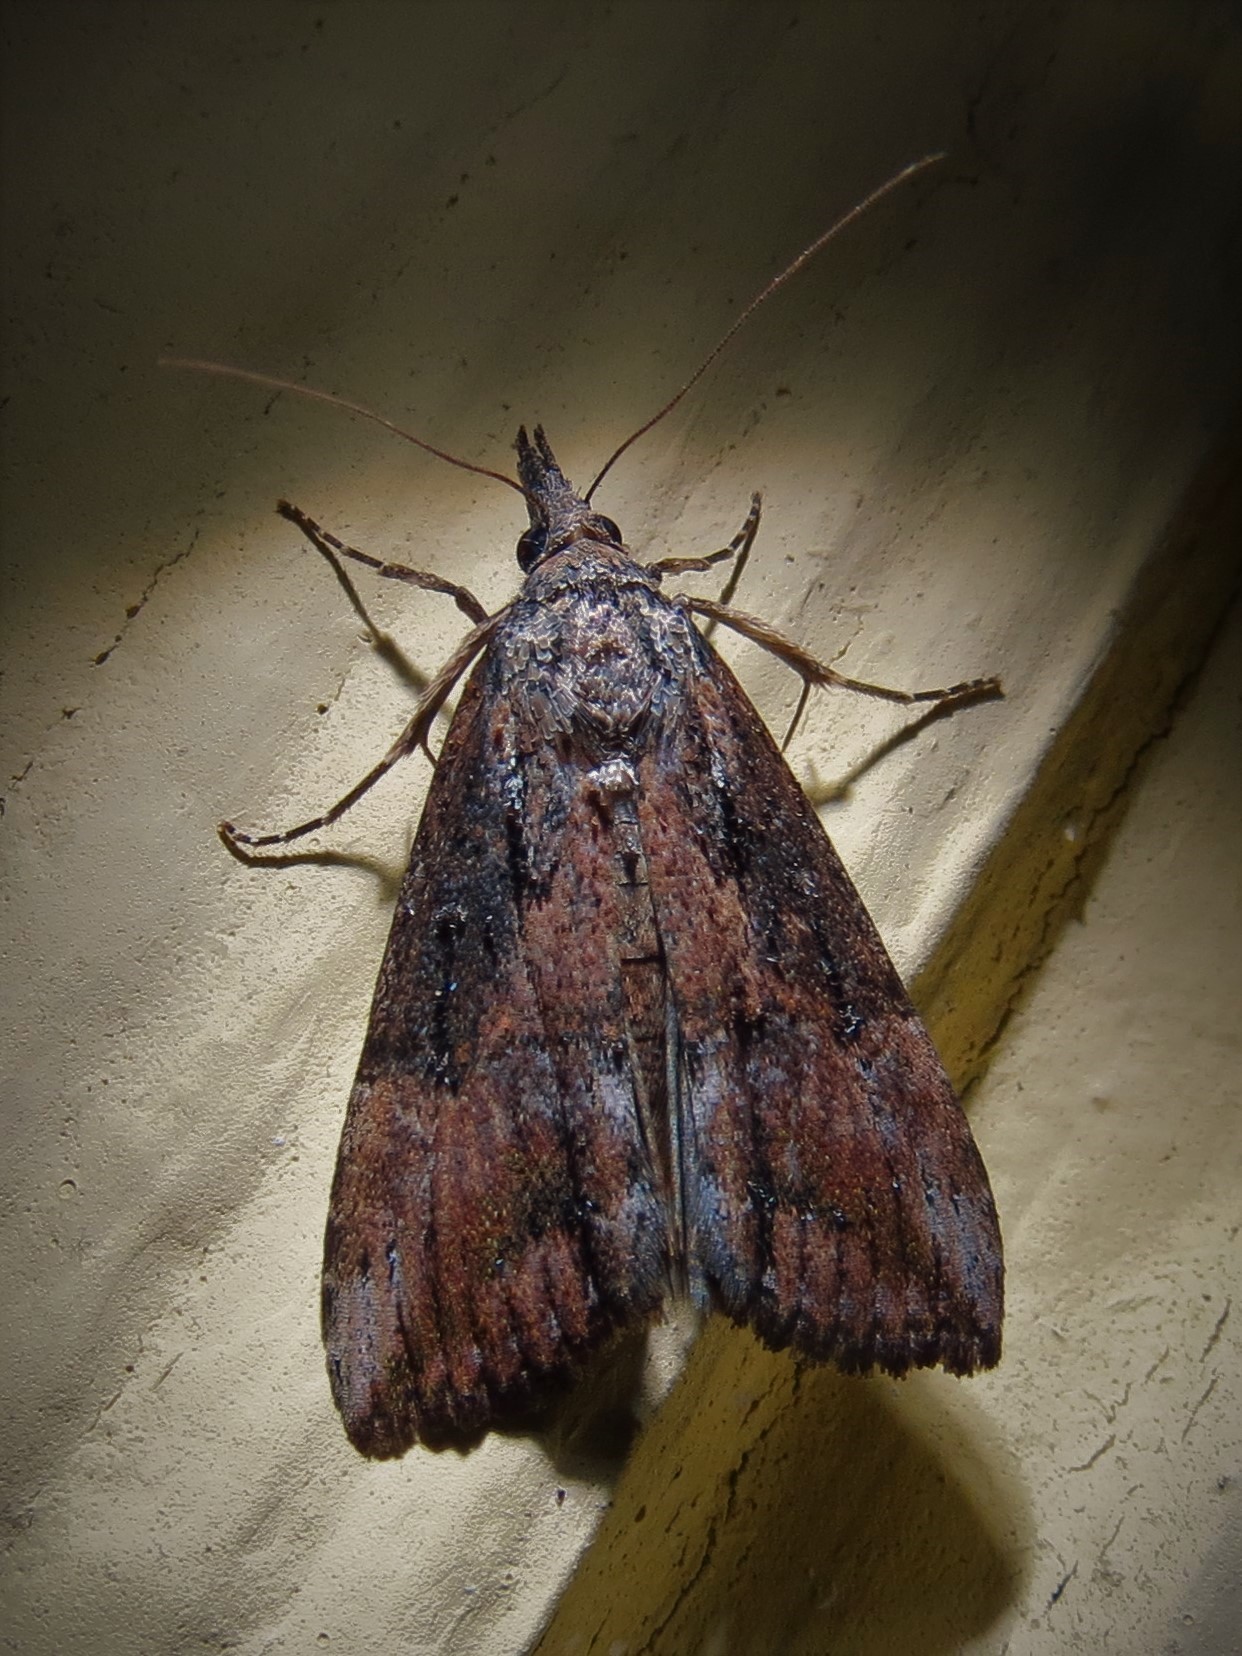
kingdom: Animalia
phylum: Arthropoda
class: Insecta
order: Lepidoptera
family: Erebidae
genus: Hypena
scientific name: Hypena scabra
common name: Green cloverworm
